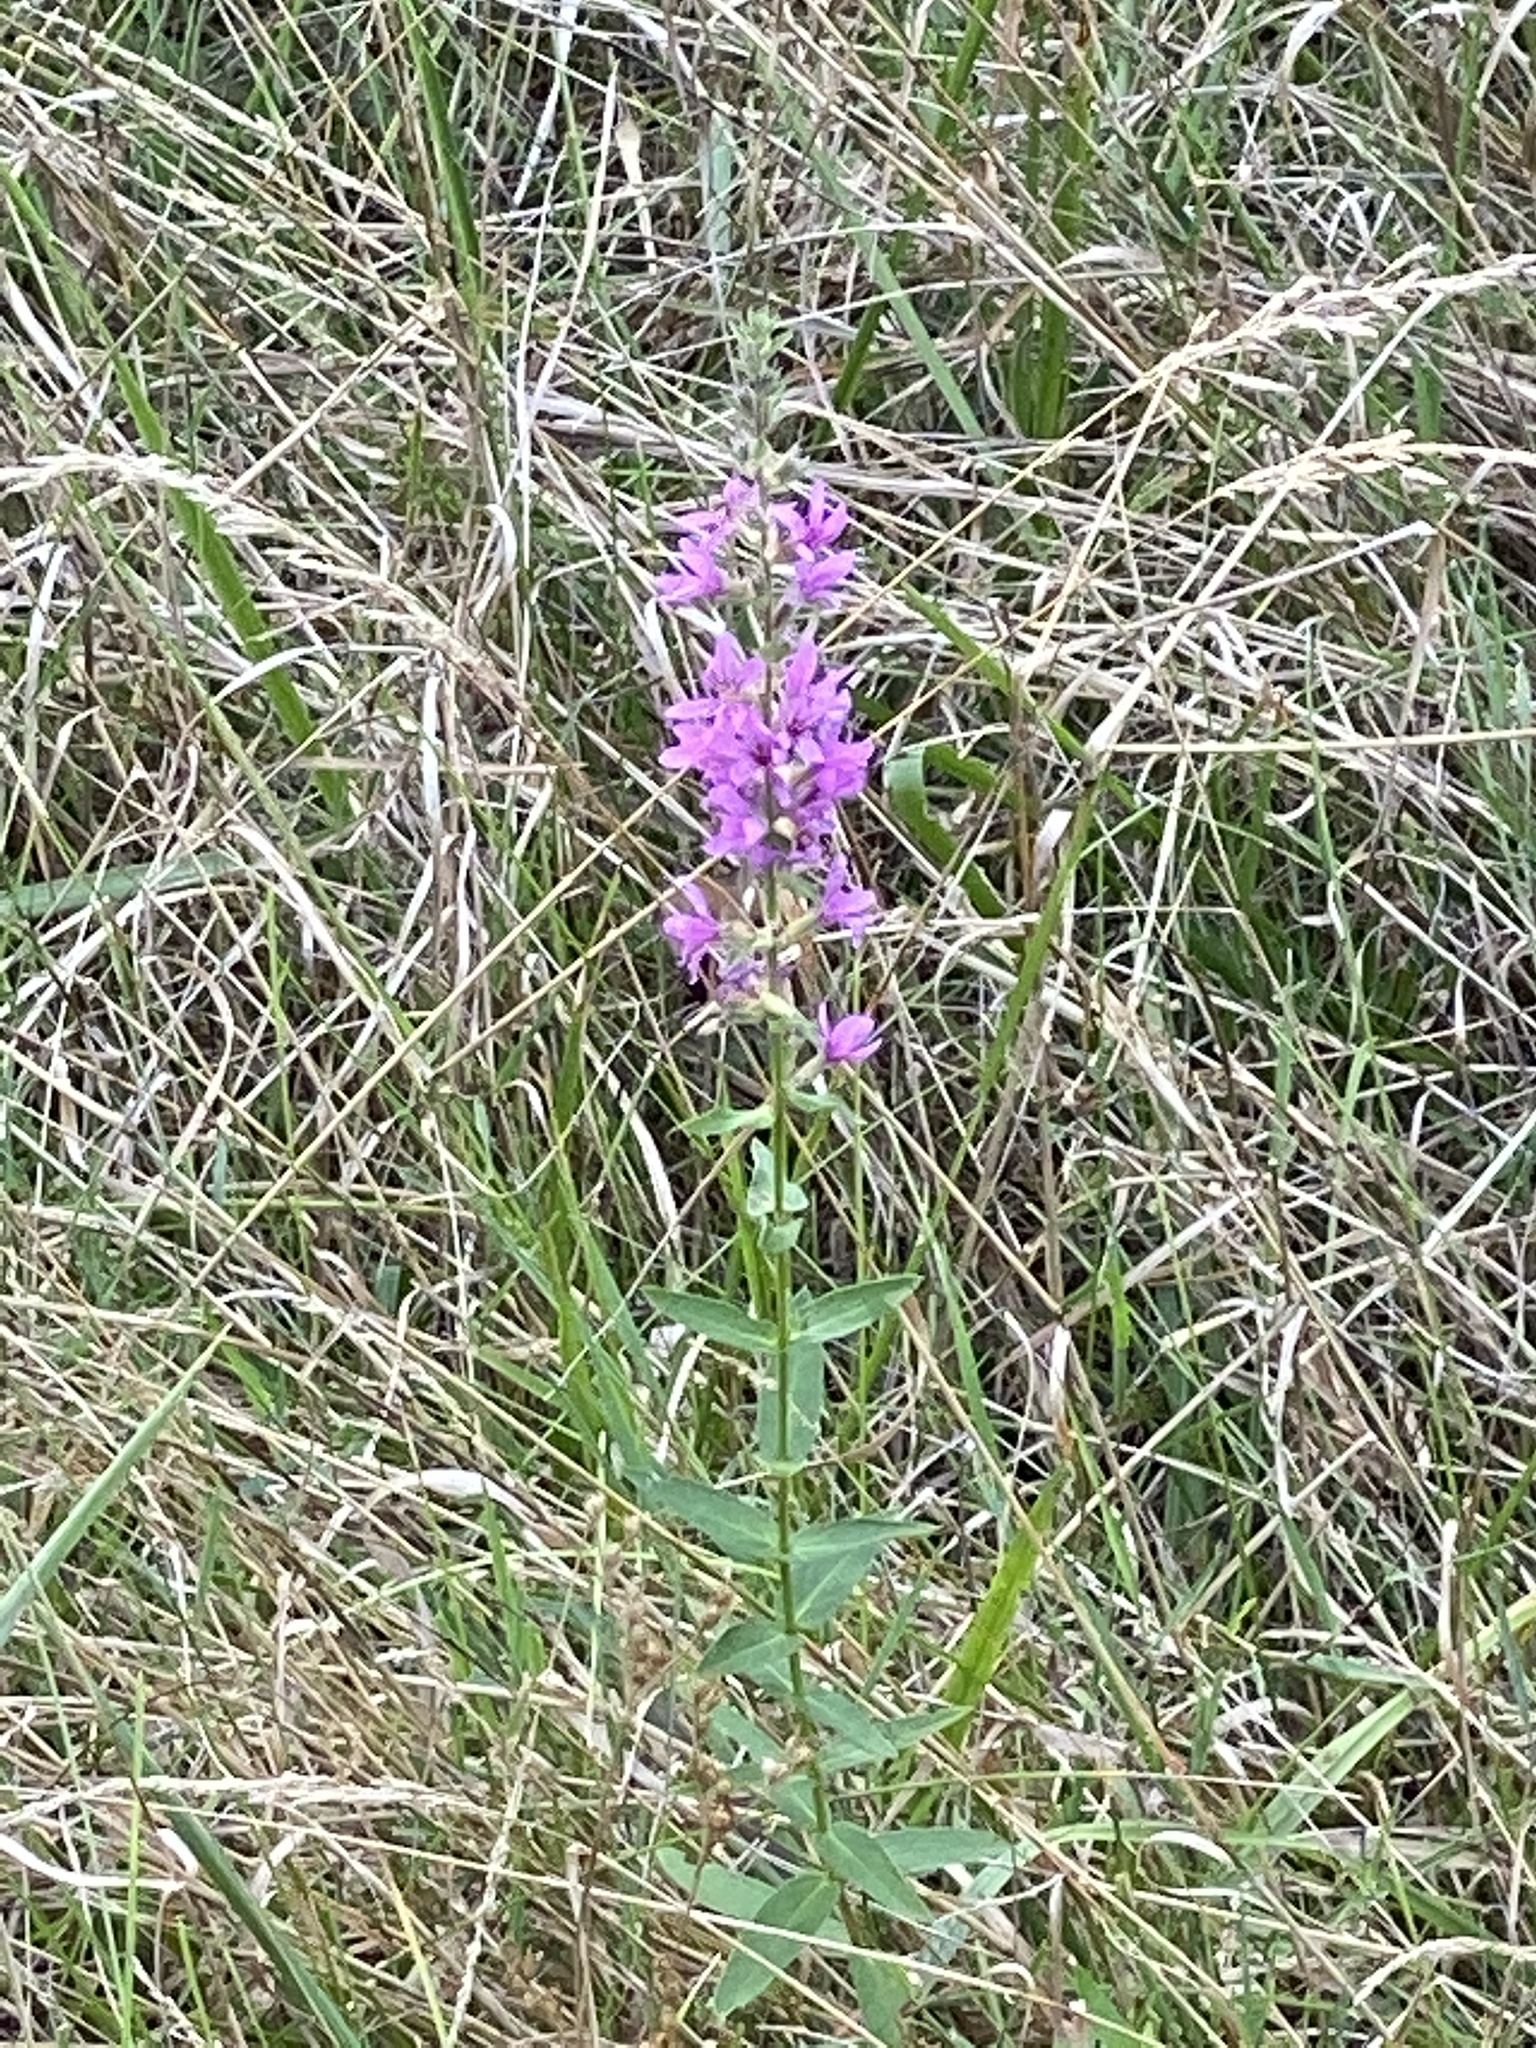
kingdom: Plantae
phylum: Tracheophyta
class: Magnoliopsida
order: Myrtales
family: Lythraceae
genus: Lythrum
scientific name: Lythrum salicaria
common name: Purple loosestrife
